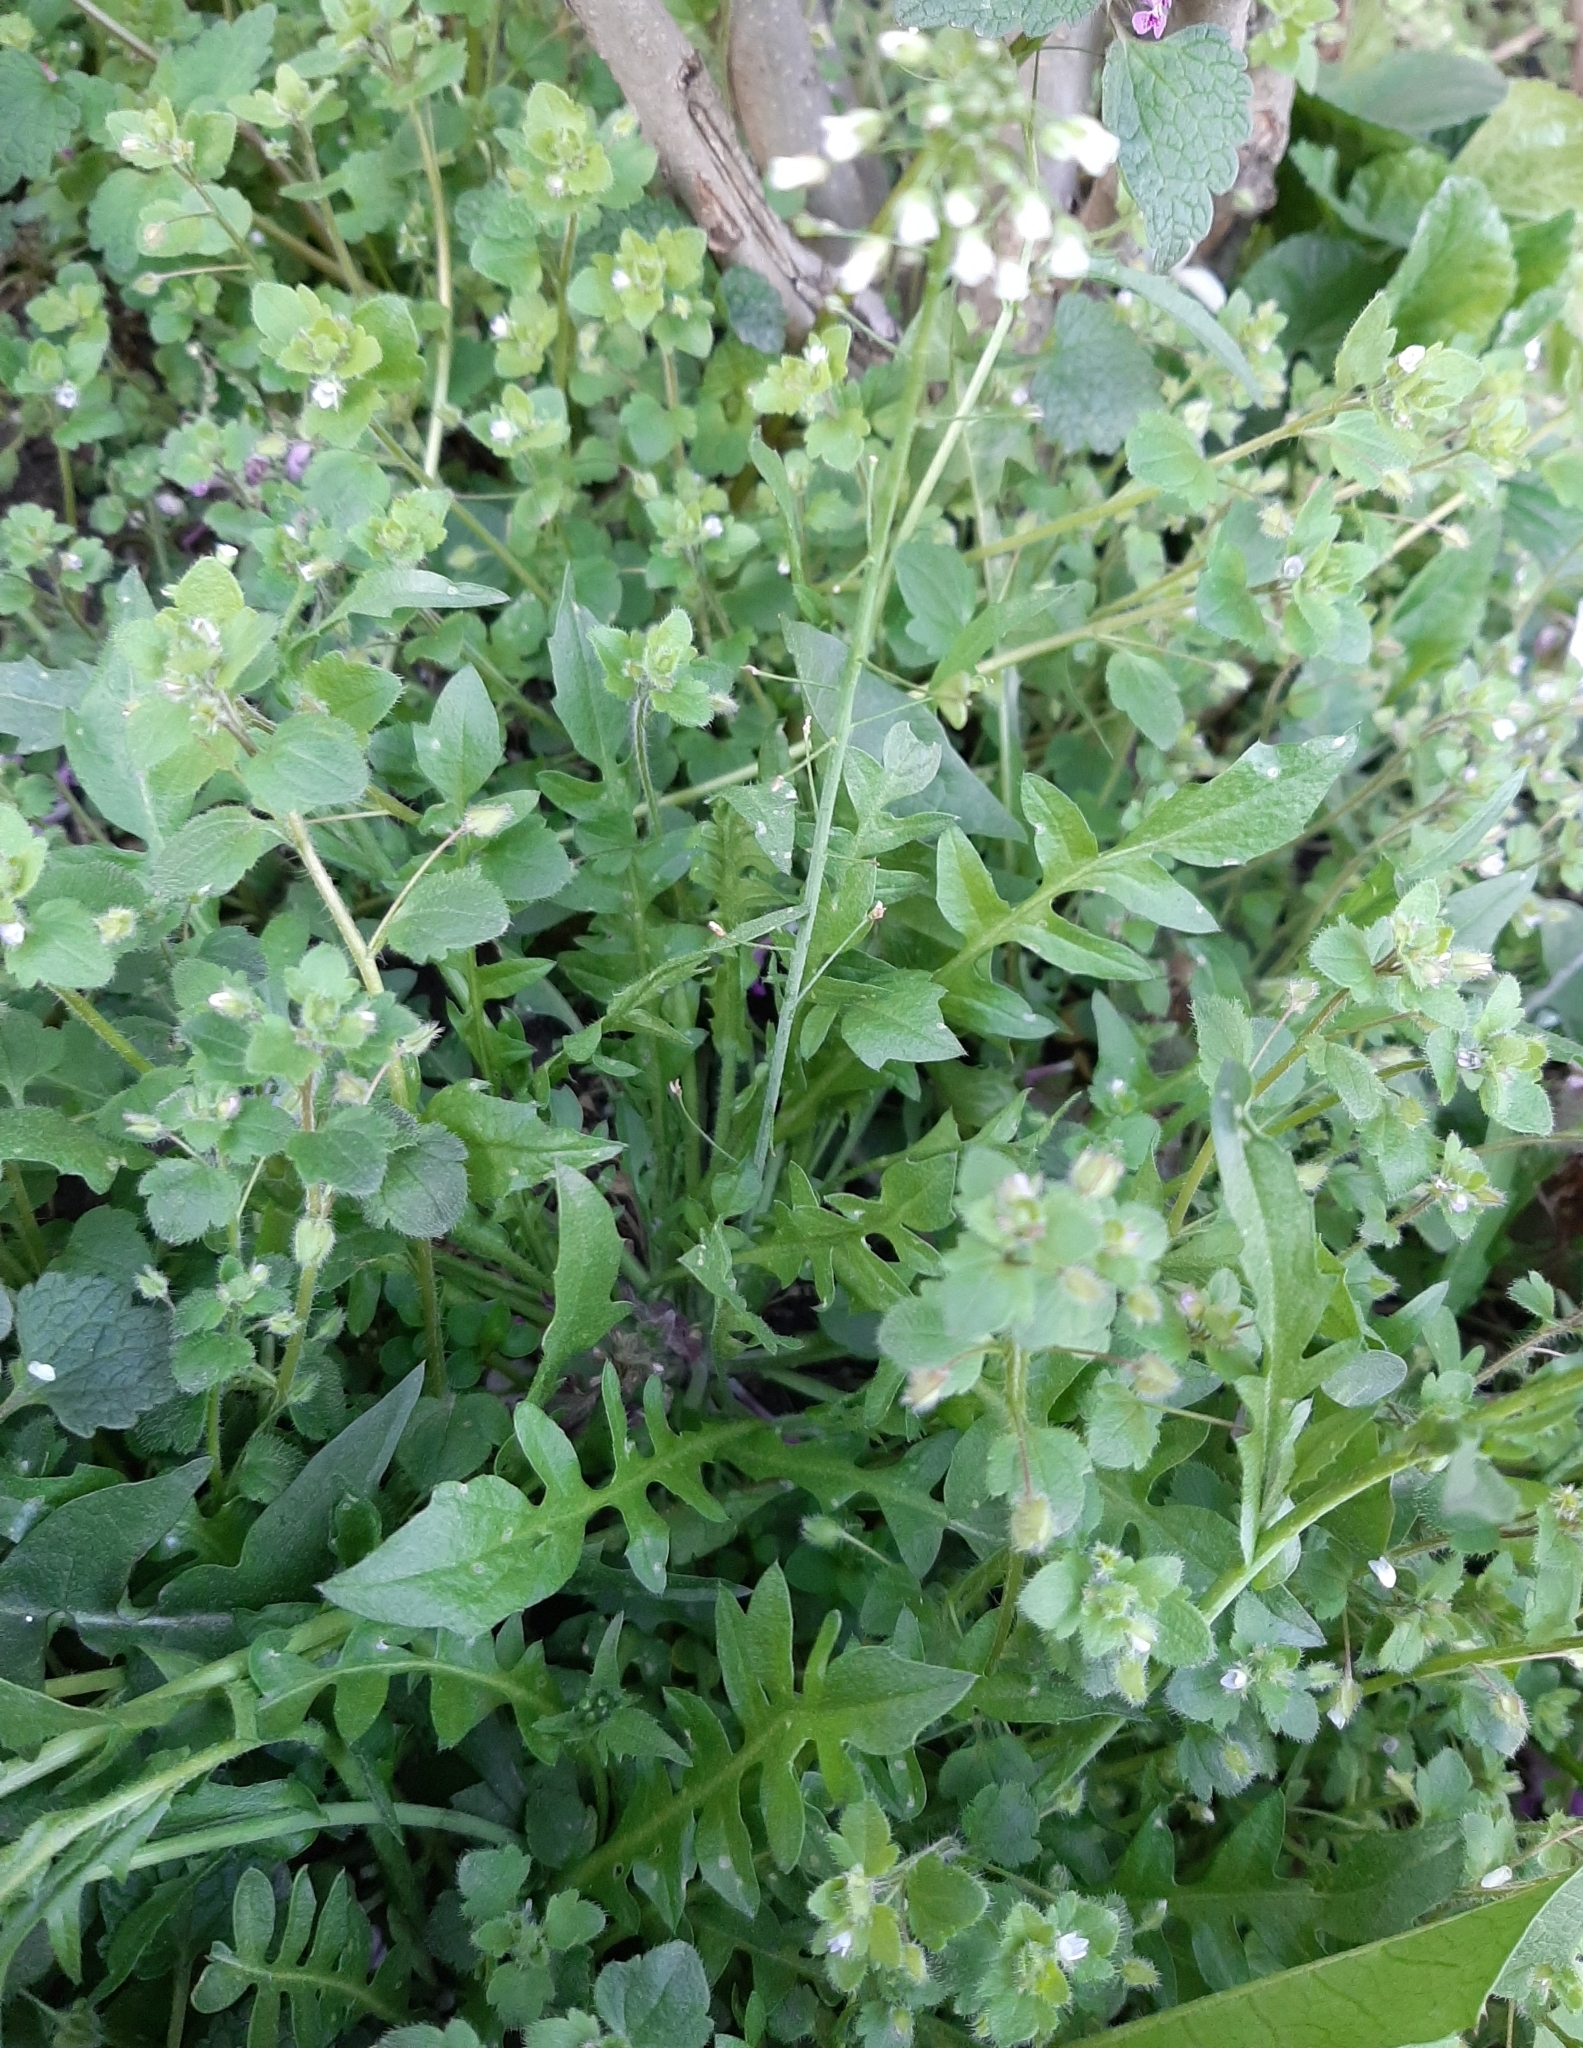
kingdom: Plantae
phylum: Tracheophyta
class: Magnoliopsida
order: Brassicales
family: Brassicaceae
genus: Capsella
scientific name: Capsella bursa-pastoris
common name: Shepherd's purse
